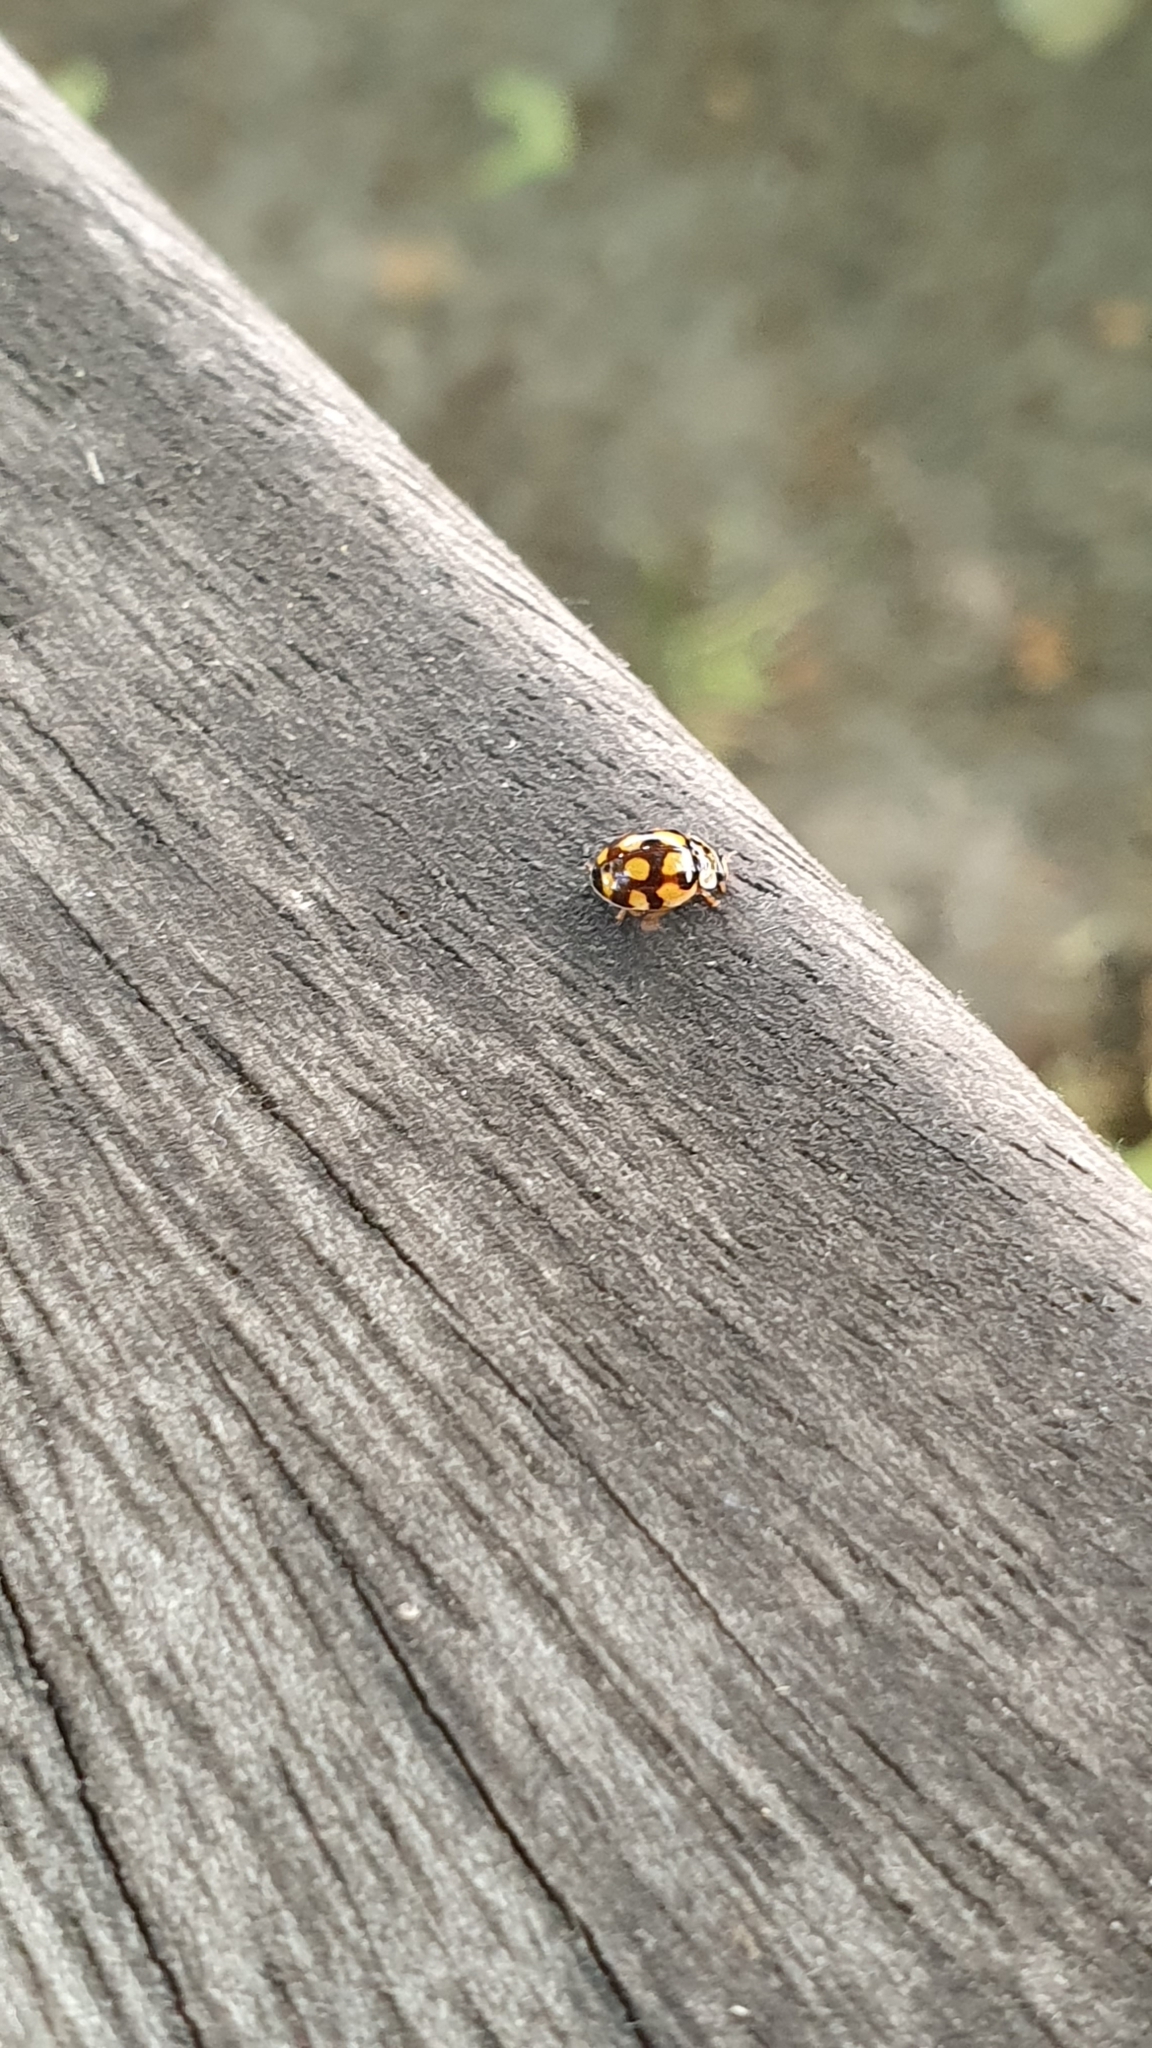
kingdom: Animalia
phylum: Arthropoda
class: Insecta
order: Coleoptera
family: Coccinellidae
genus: Adalia
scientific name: Adalia decempunctata
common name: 10-spot ladybird
